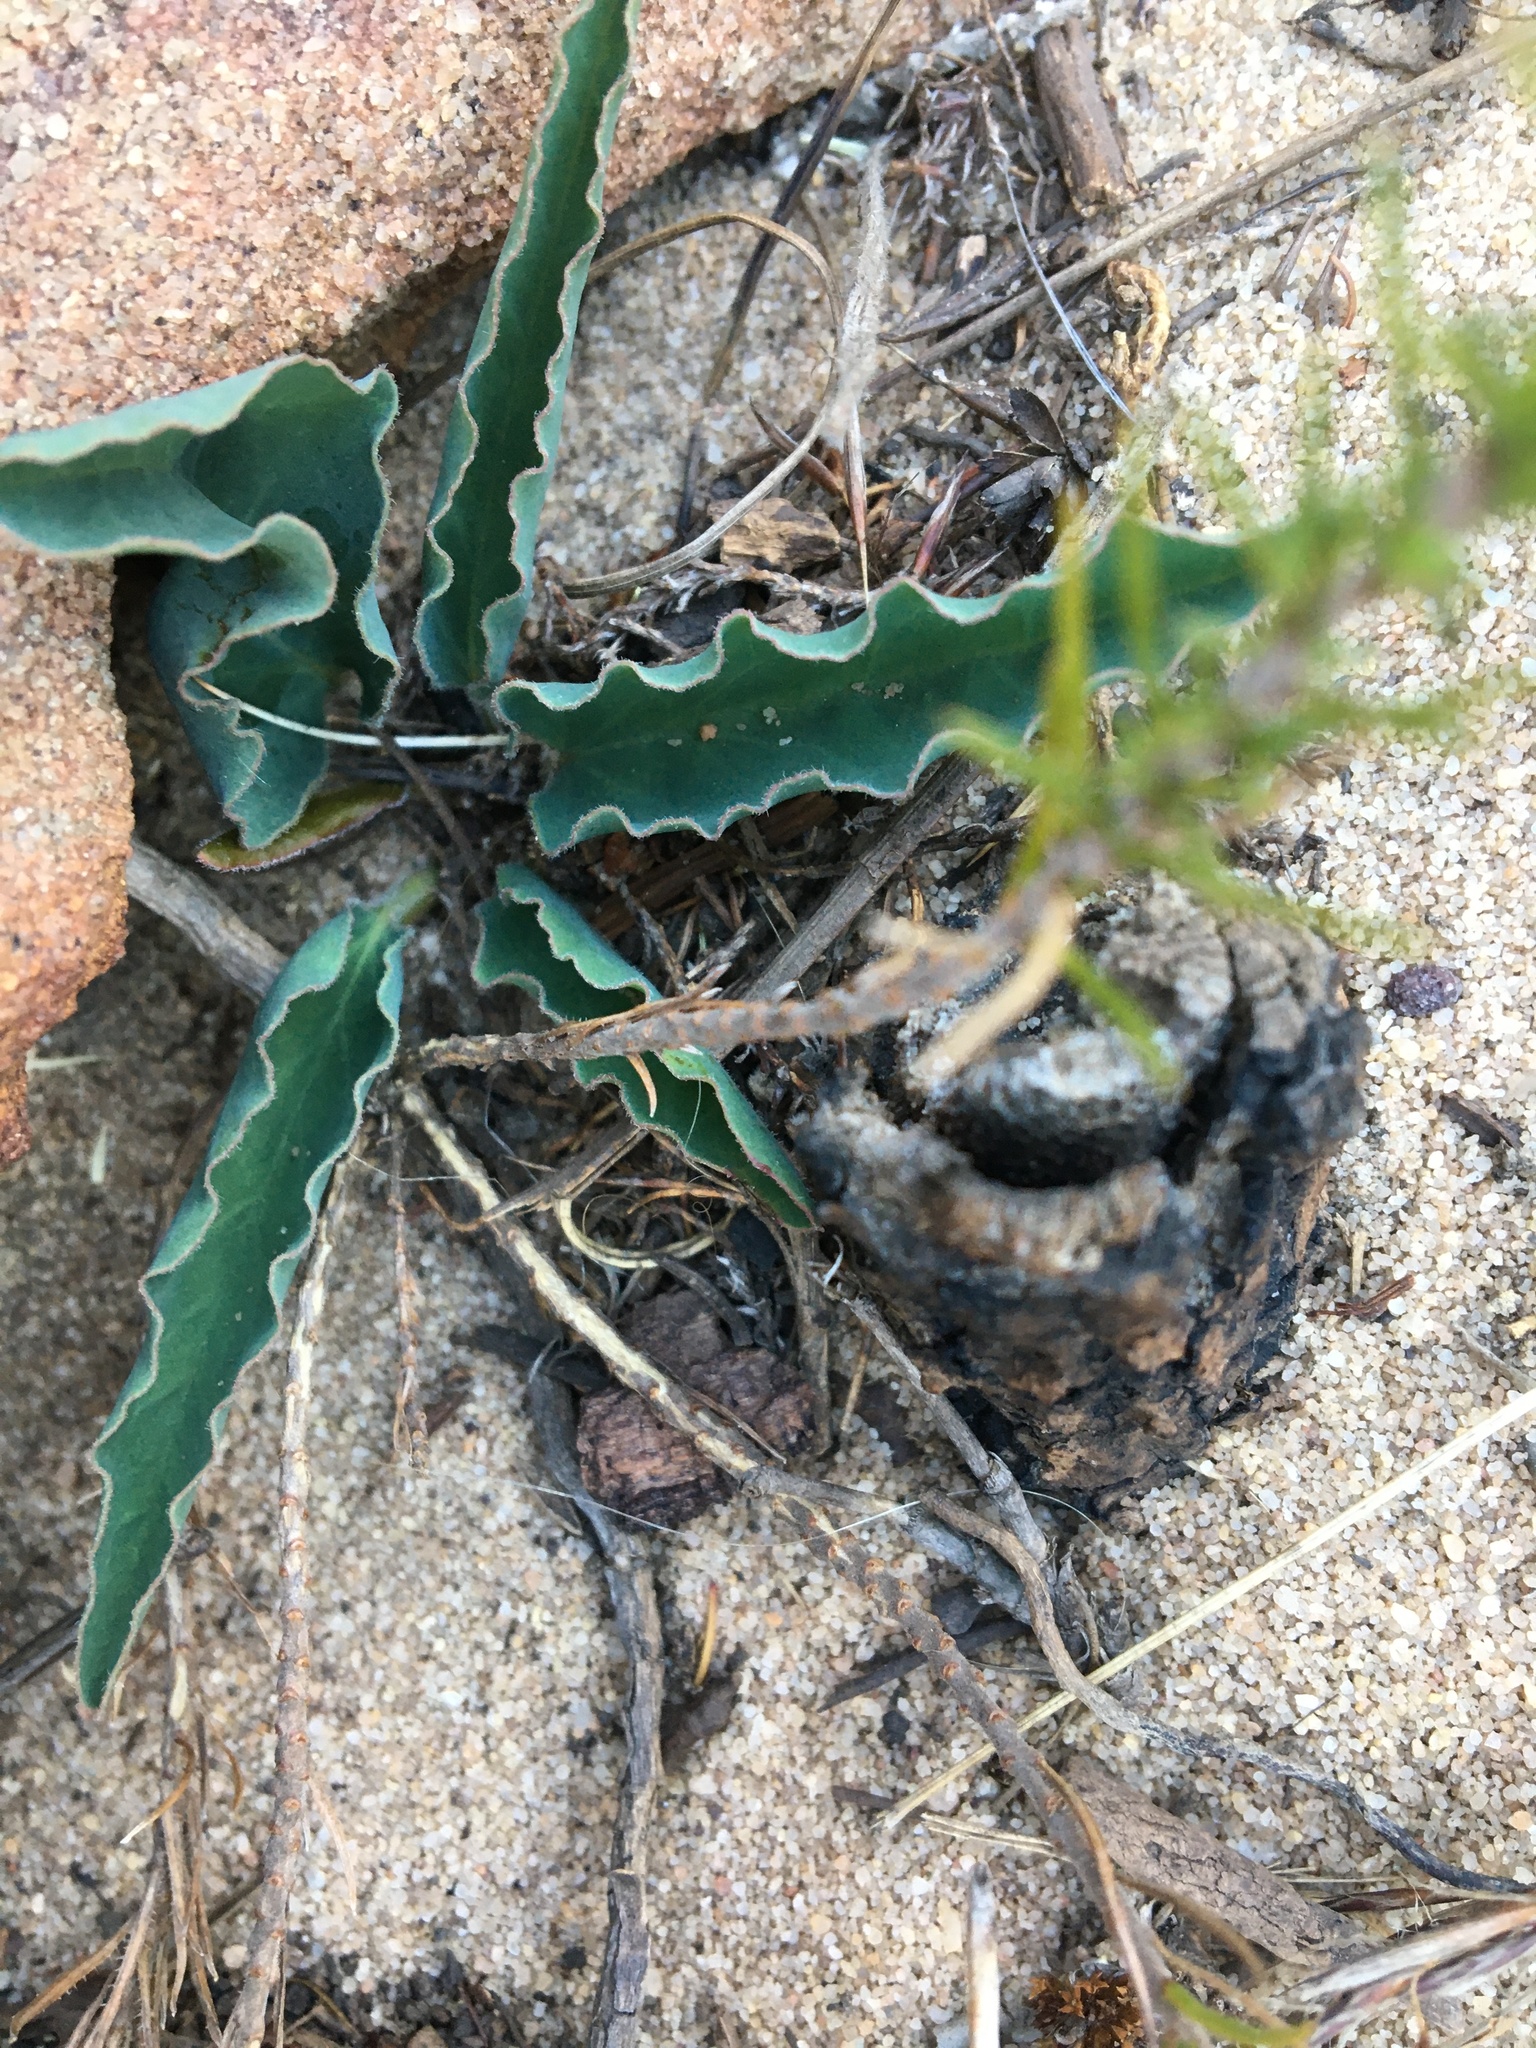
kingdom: Plantae
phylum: Tracheophyta
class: Magnoliopsida
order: Malpighiales
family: Euphorbiaceae
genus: Euphorbia
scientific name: Euphorbia tuberosa
